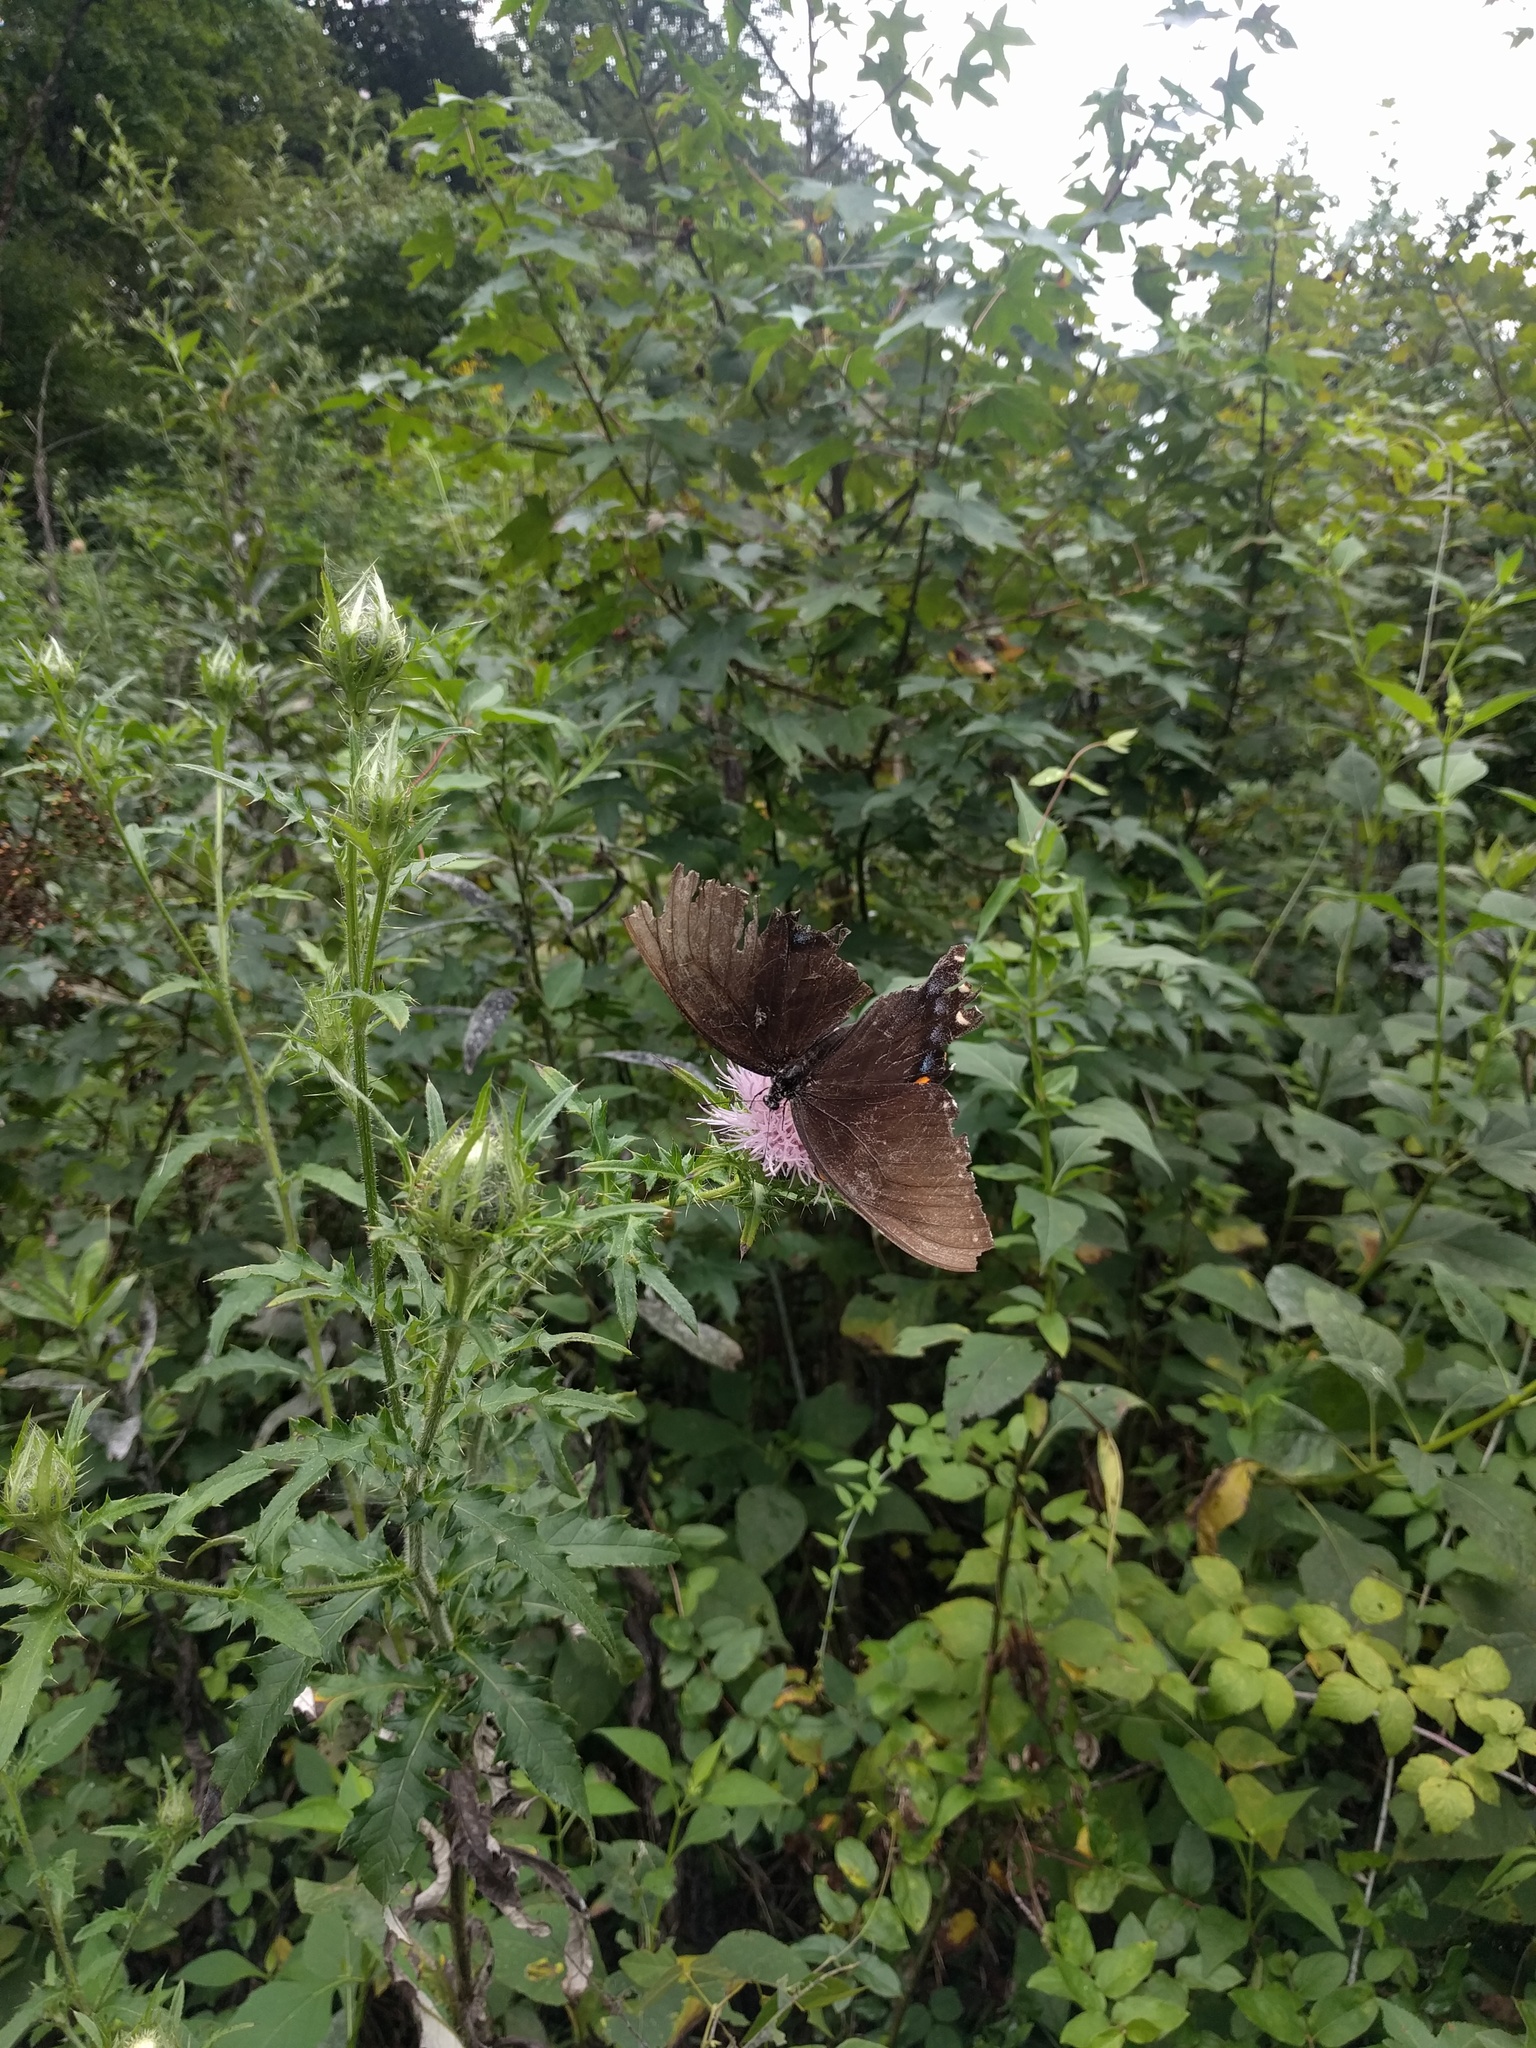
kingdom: Animalia
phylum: Arthropoda
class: Insecta
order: Lepidoptera
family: Papilionidae
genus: Papilio
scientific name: Papilio glaucus
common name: Tiger swallowtail
